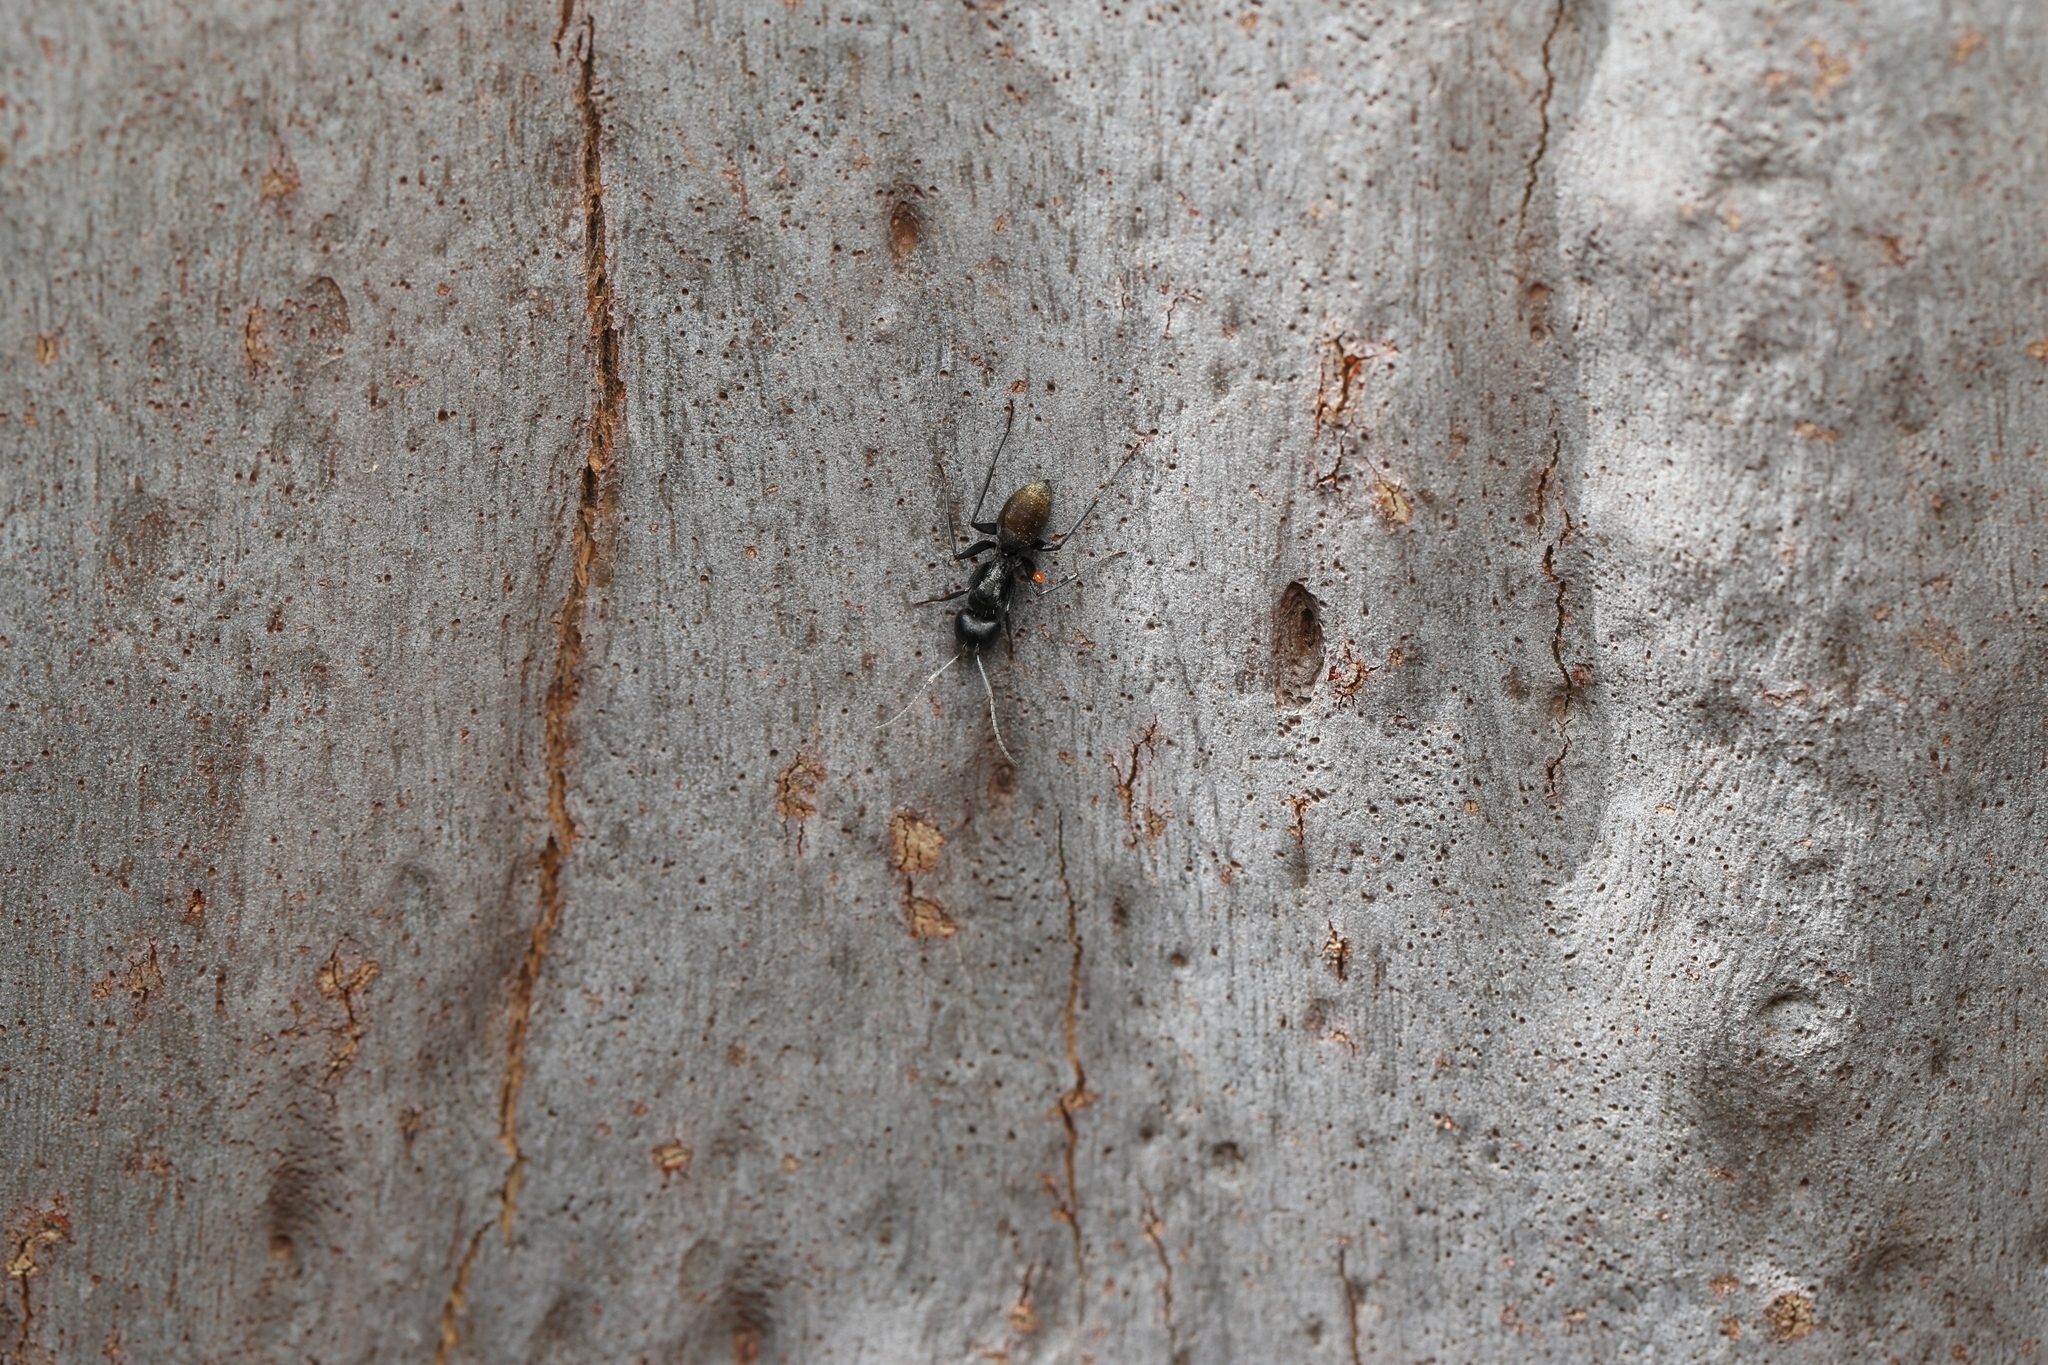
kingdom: Animalia
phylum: Arthropoda
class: Insecta
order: Hymenoptera
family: Formicidae
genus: Camponotus
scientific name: Camponotus aeneopilosus
